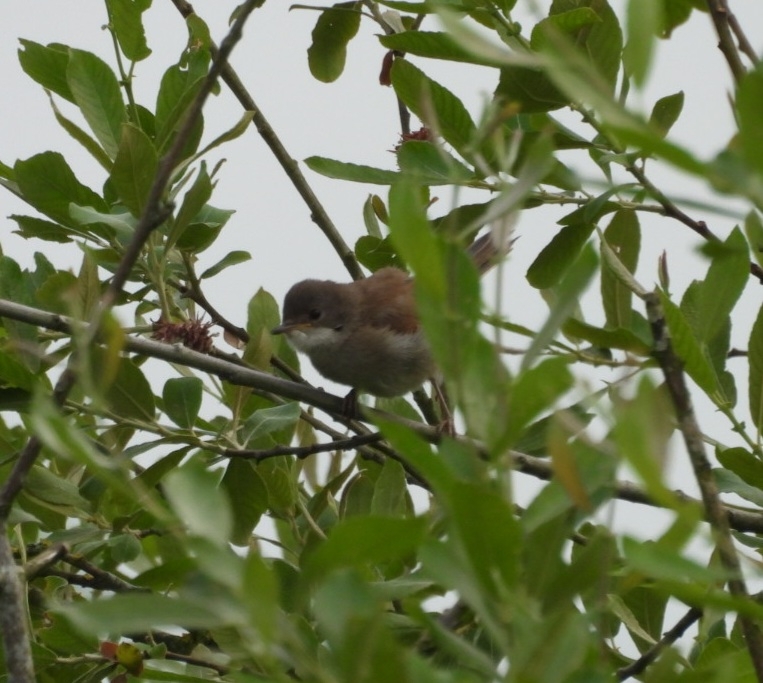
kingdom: Animalia
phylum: Chordata
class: Aves
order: Passeriformes
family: Sylviidae
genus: Sylvia
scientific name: Sylvia communis
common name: Common whitethroat
